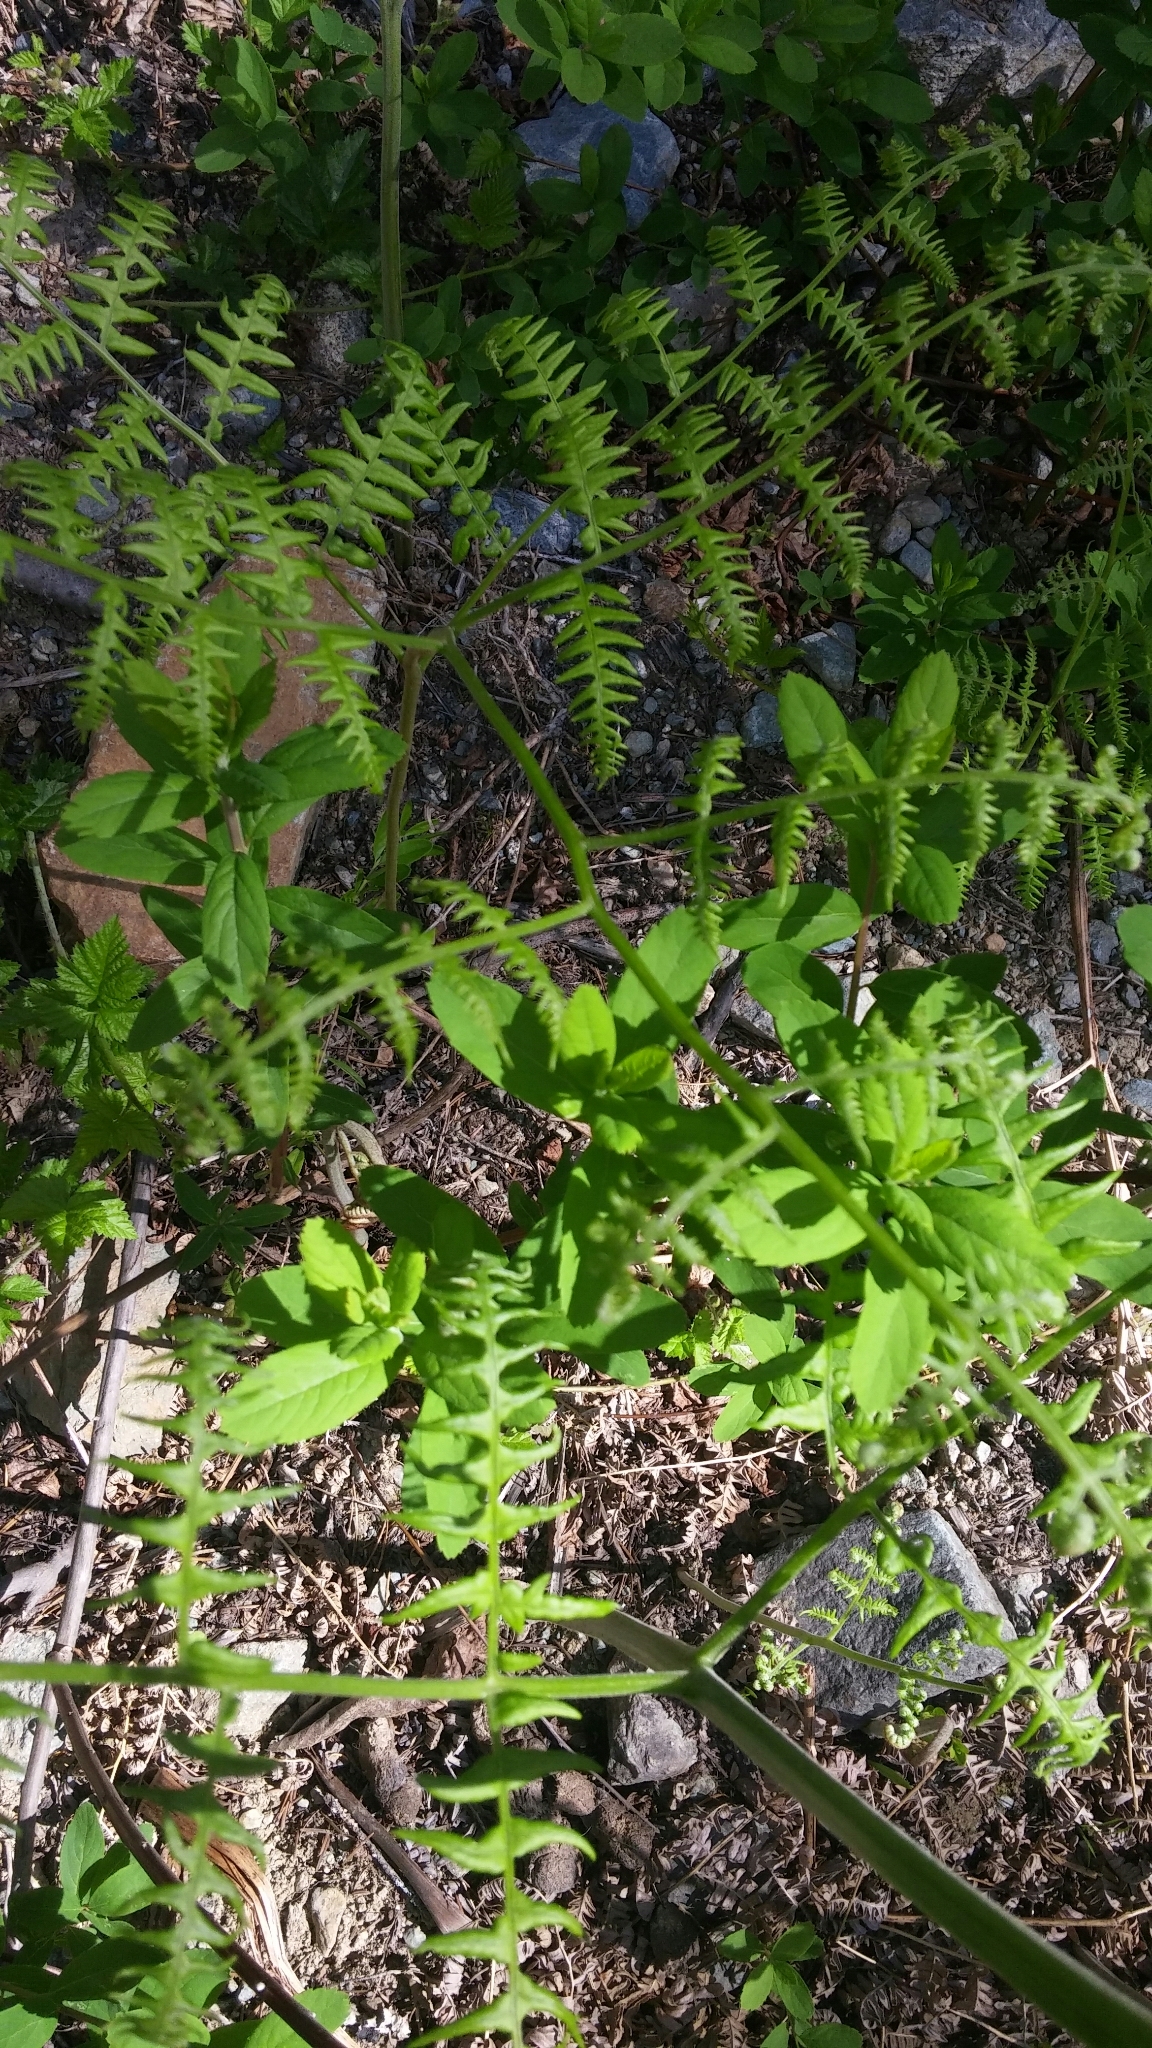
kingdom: Plantae
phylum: Tracheophyta
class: Polypodiopsida
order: Polypodiales
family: Dennstaedtiaceae
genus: Pteridium
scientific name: Pteridium aquilinum
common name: Bracken
